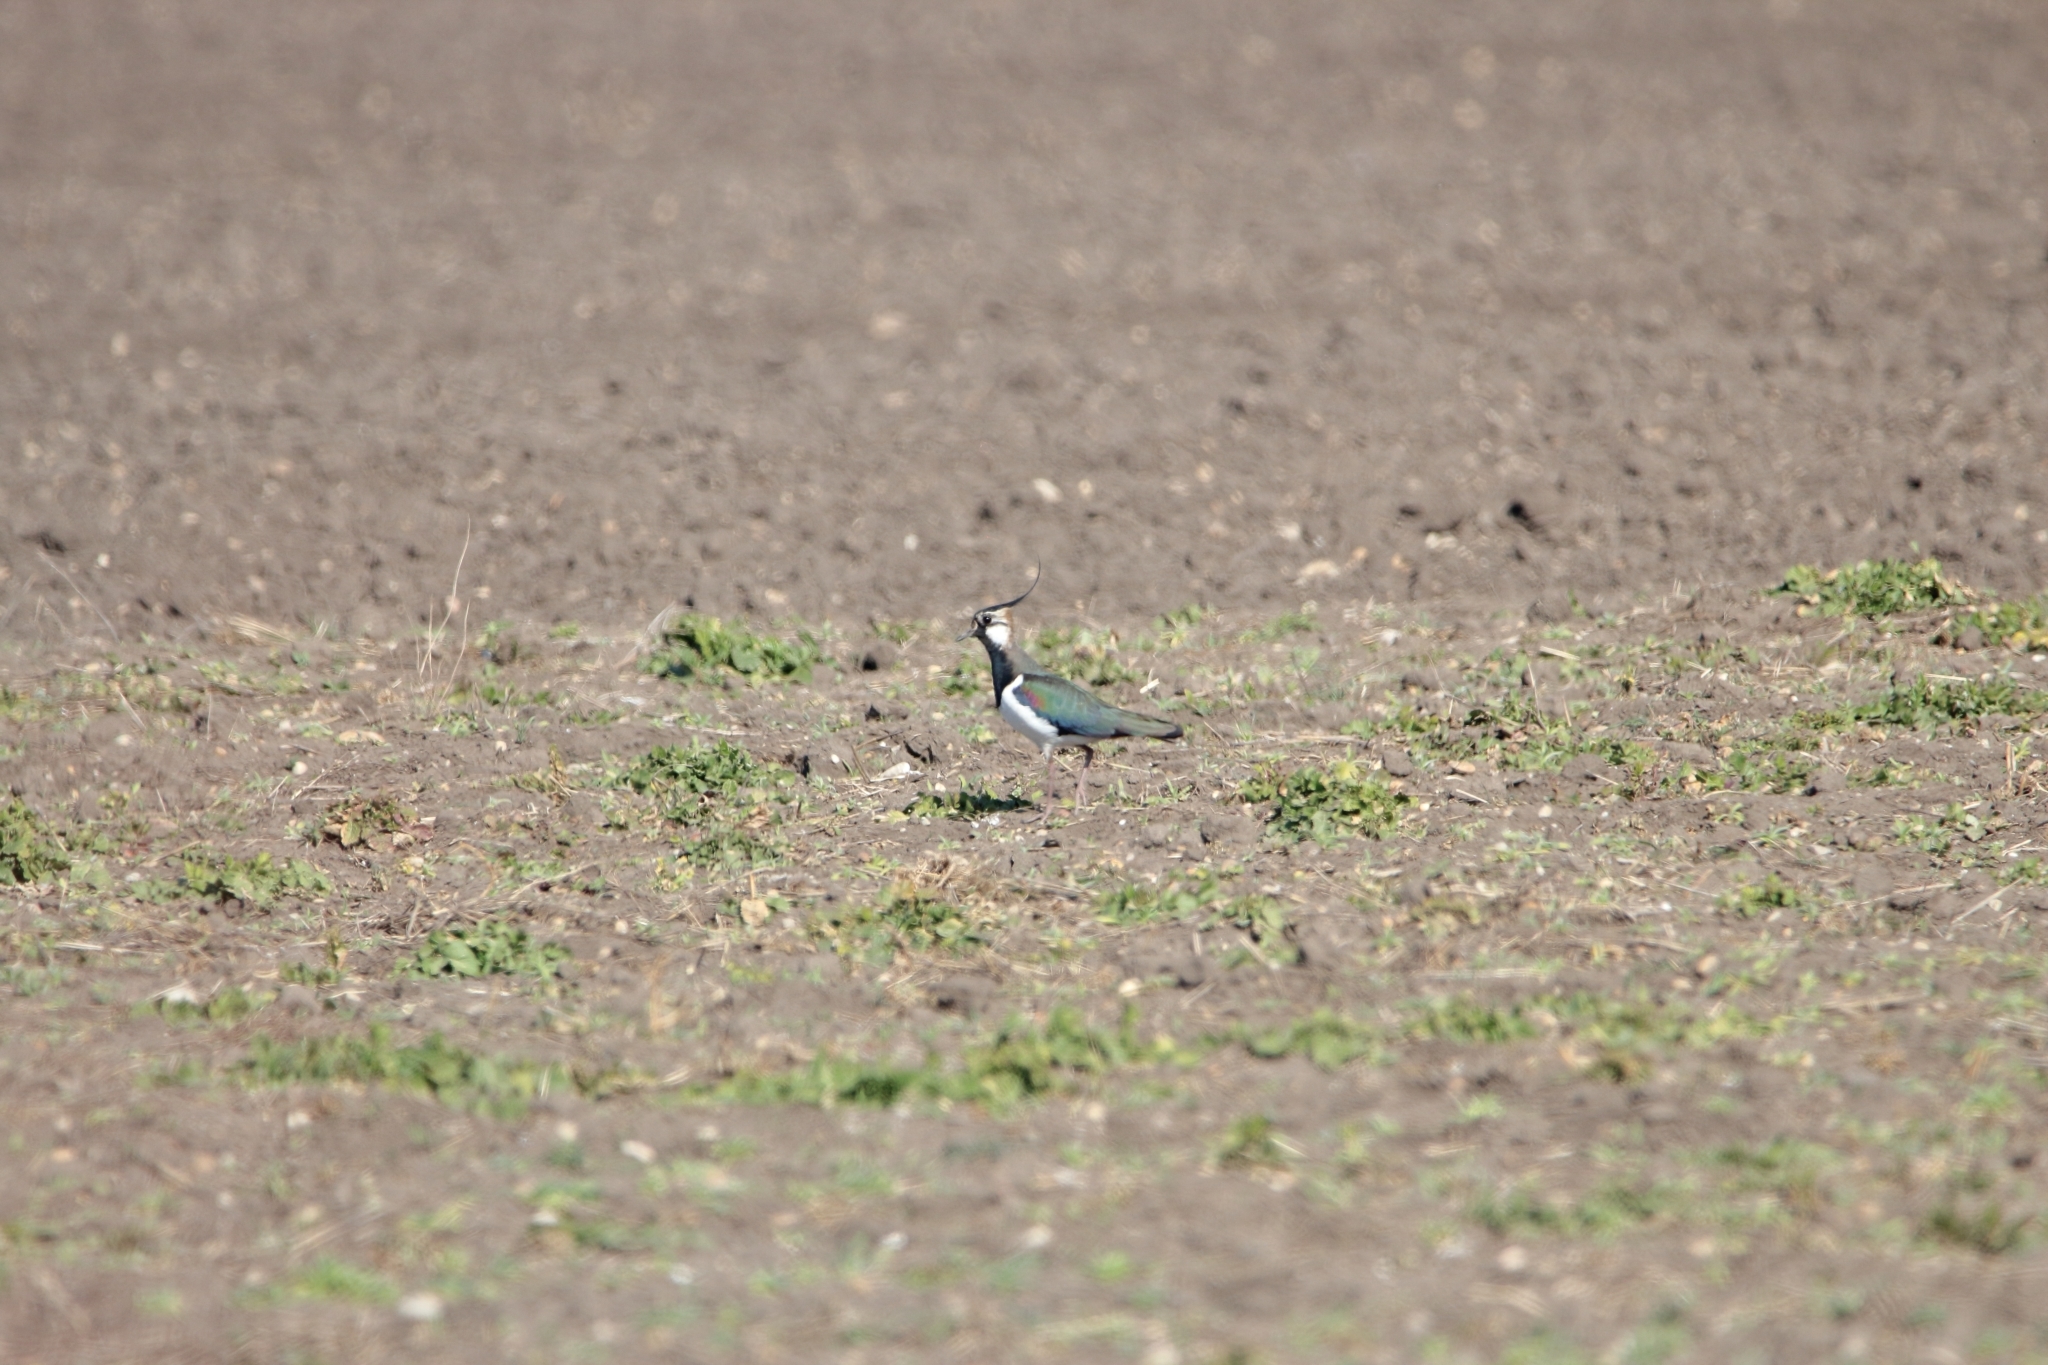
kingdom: Animalia
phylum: Chordata
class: Aves
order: Charadriiformes
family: Charadriidae
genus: Vanellus
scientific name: Vanellus vanellus
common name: Northern lapwing
